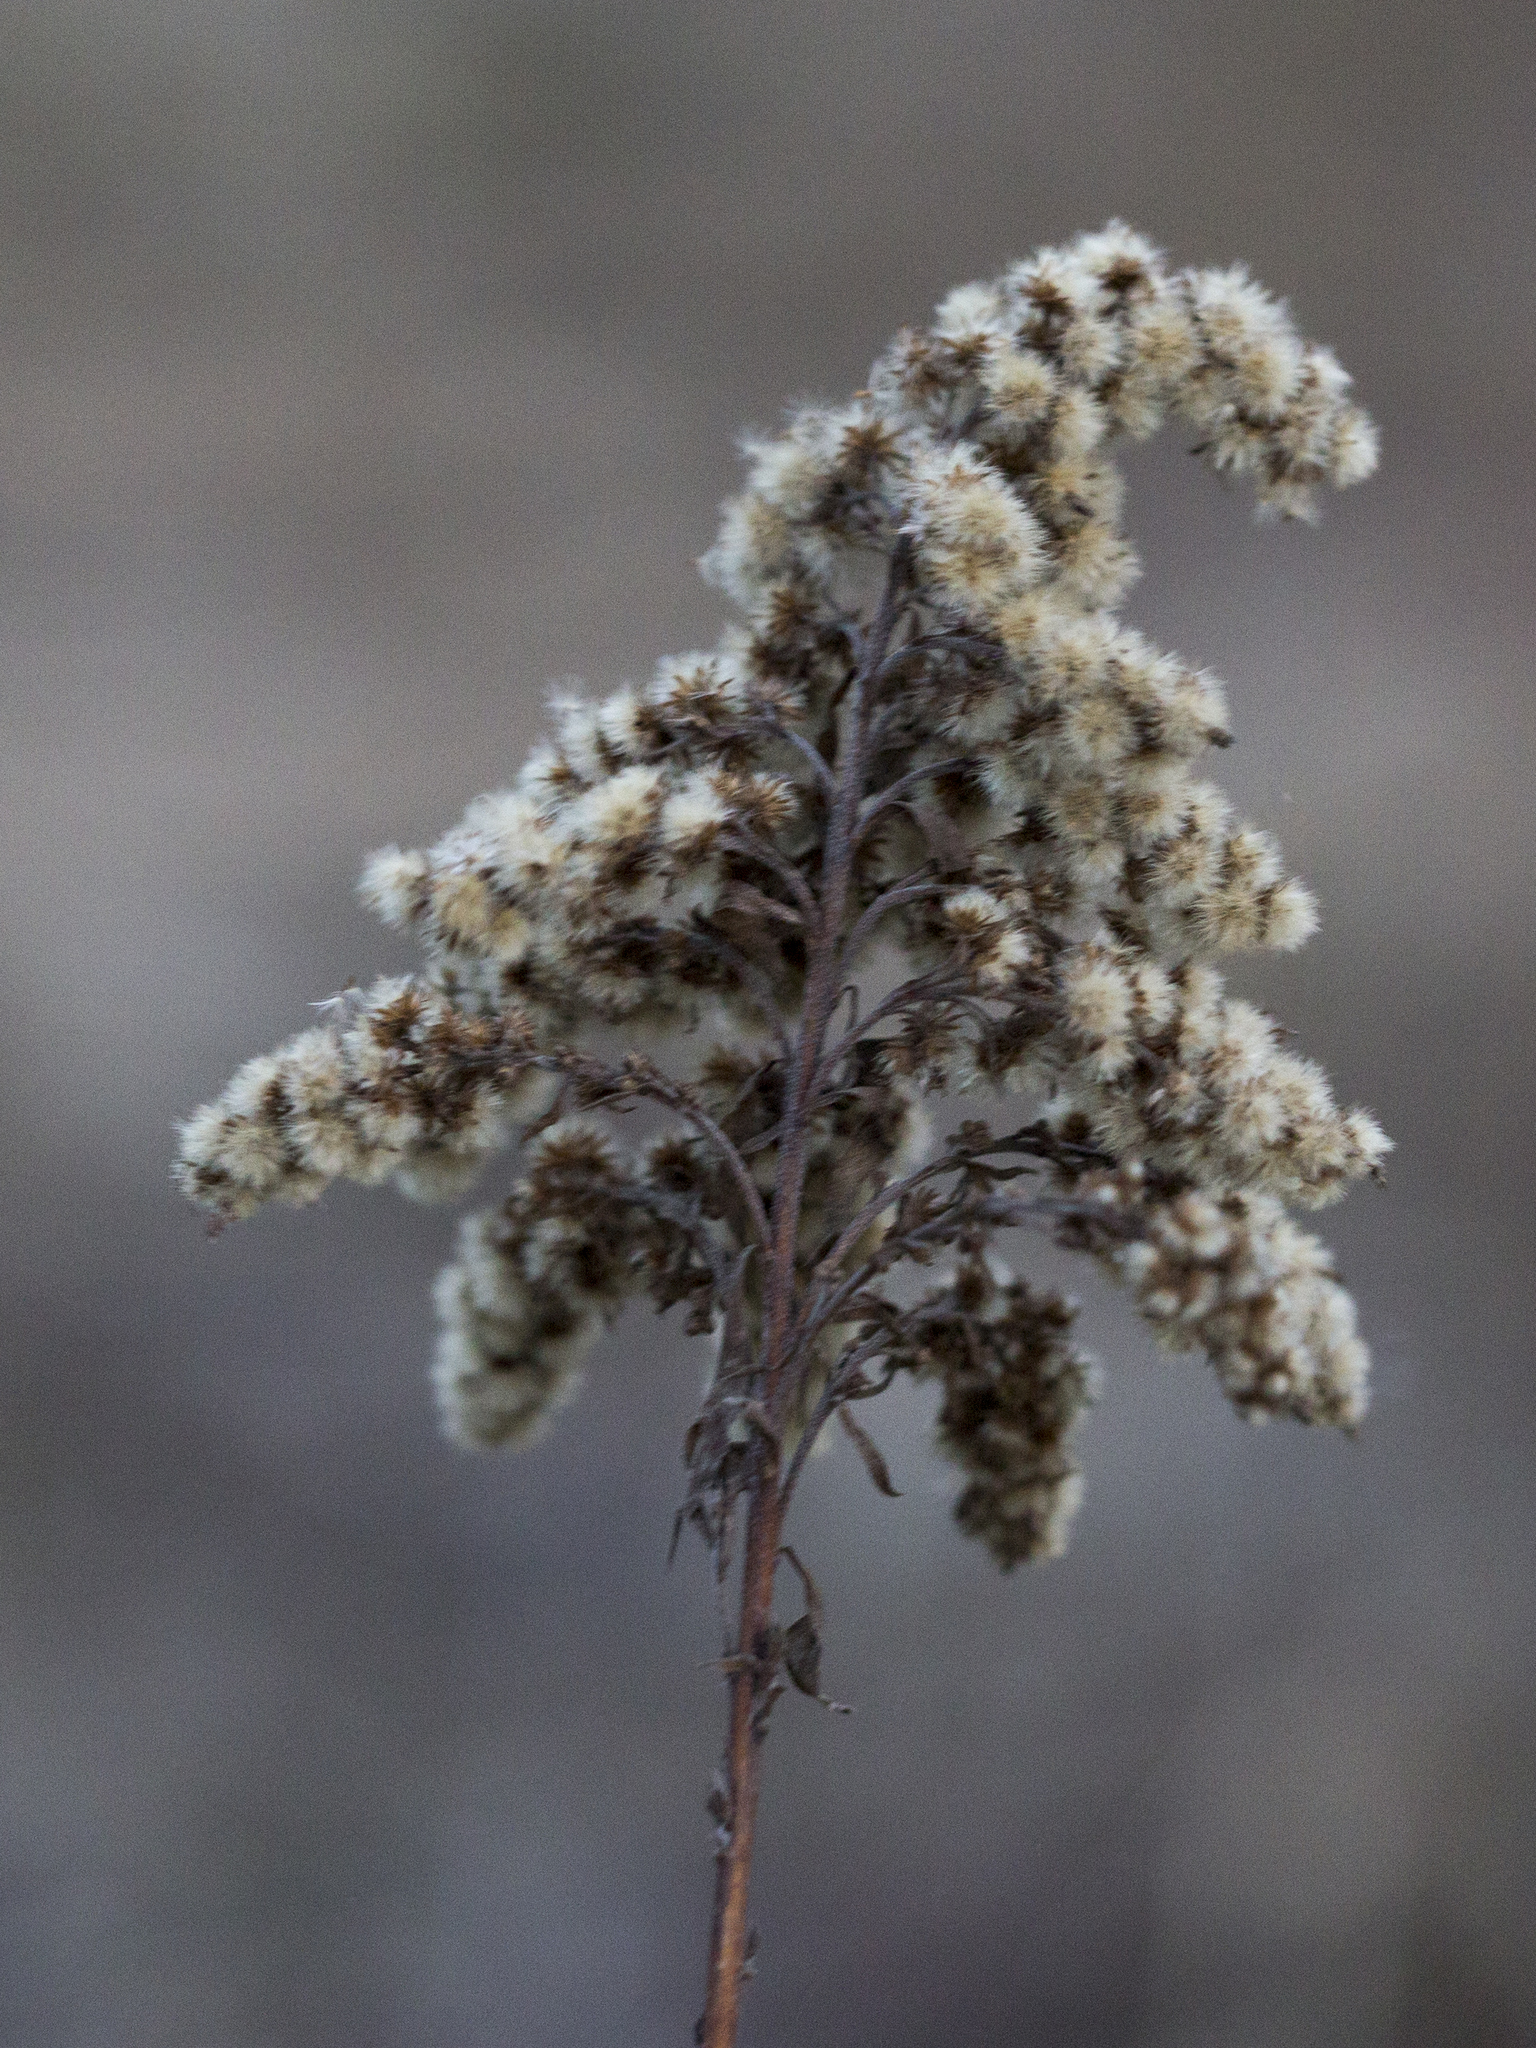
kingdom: Plantae
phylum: Tracheophyta
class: Magnoliopsida
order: Asterales
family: Asteraceae
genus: Solidago
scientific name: Solidago gigantea
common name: Giant goldenrod
